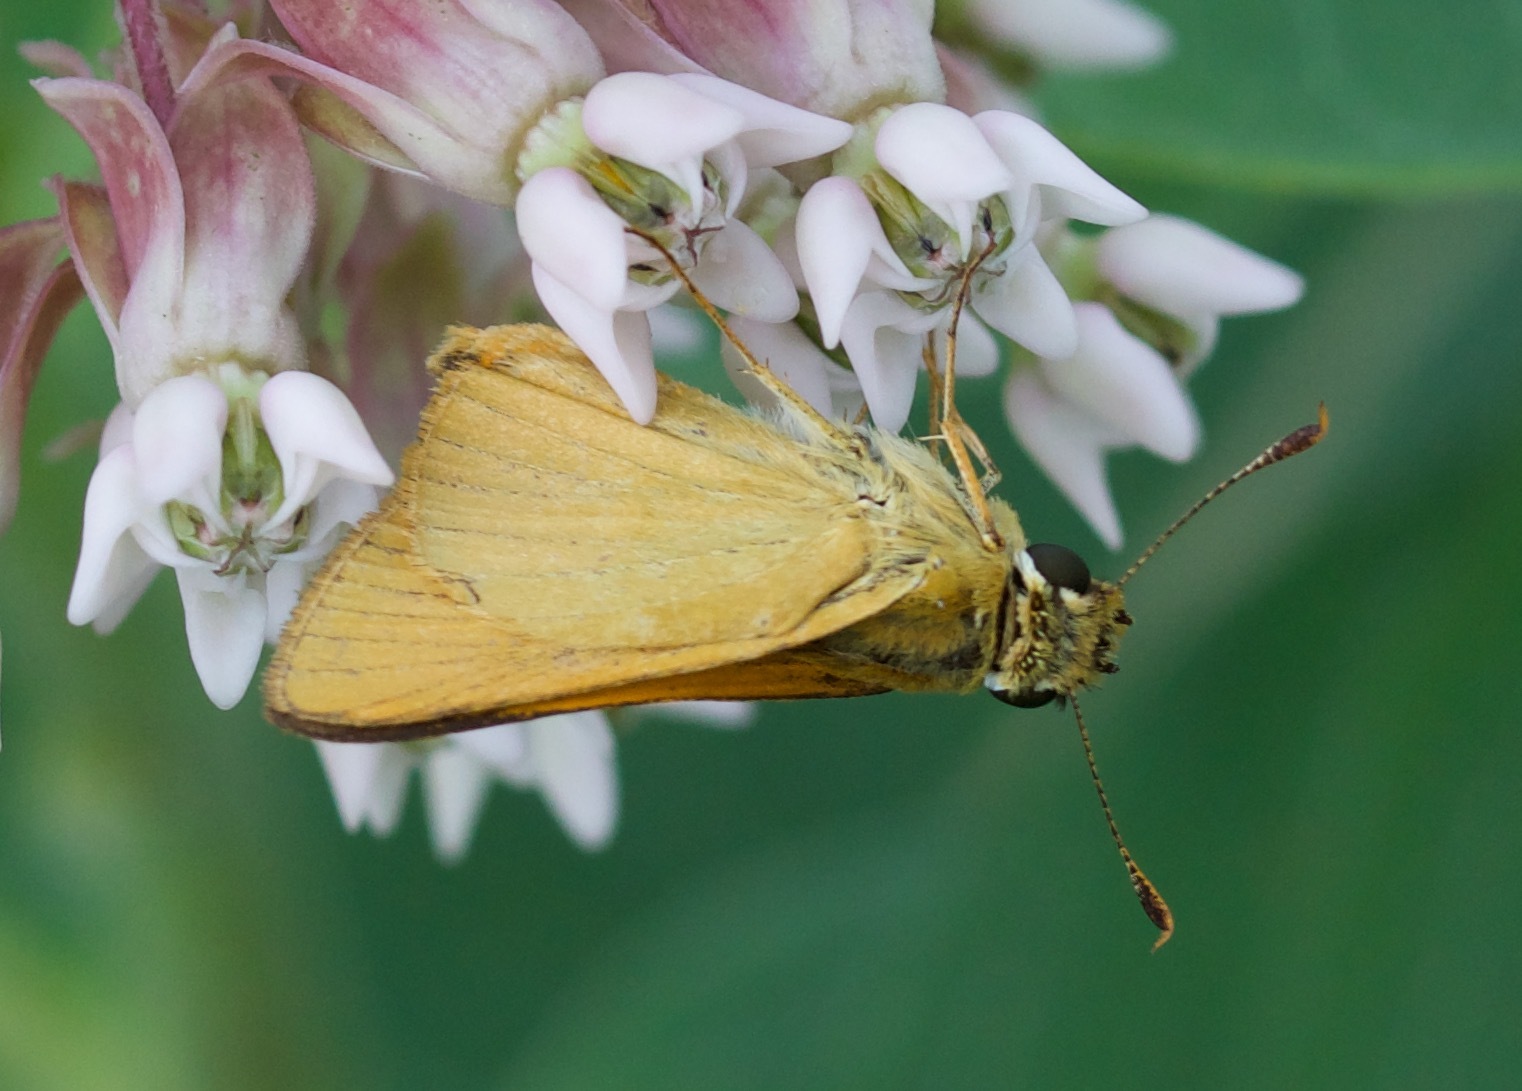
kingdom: Animalia
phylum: Arthropoda
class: Insecta
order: Lepidoptera
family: Hesperiidae
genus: Atrytone
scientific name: Atrytone delaware
